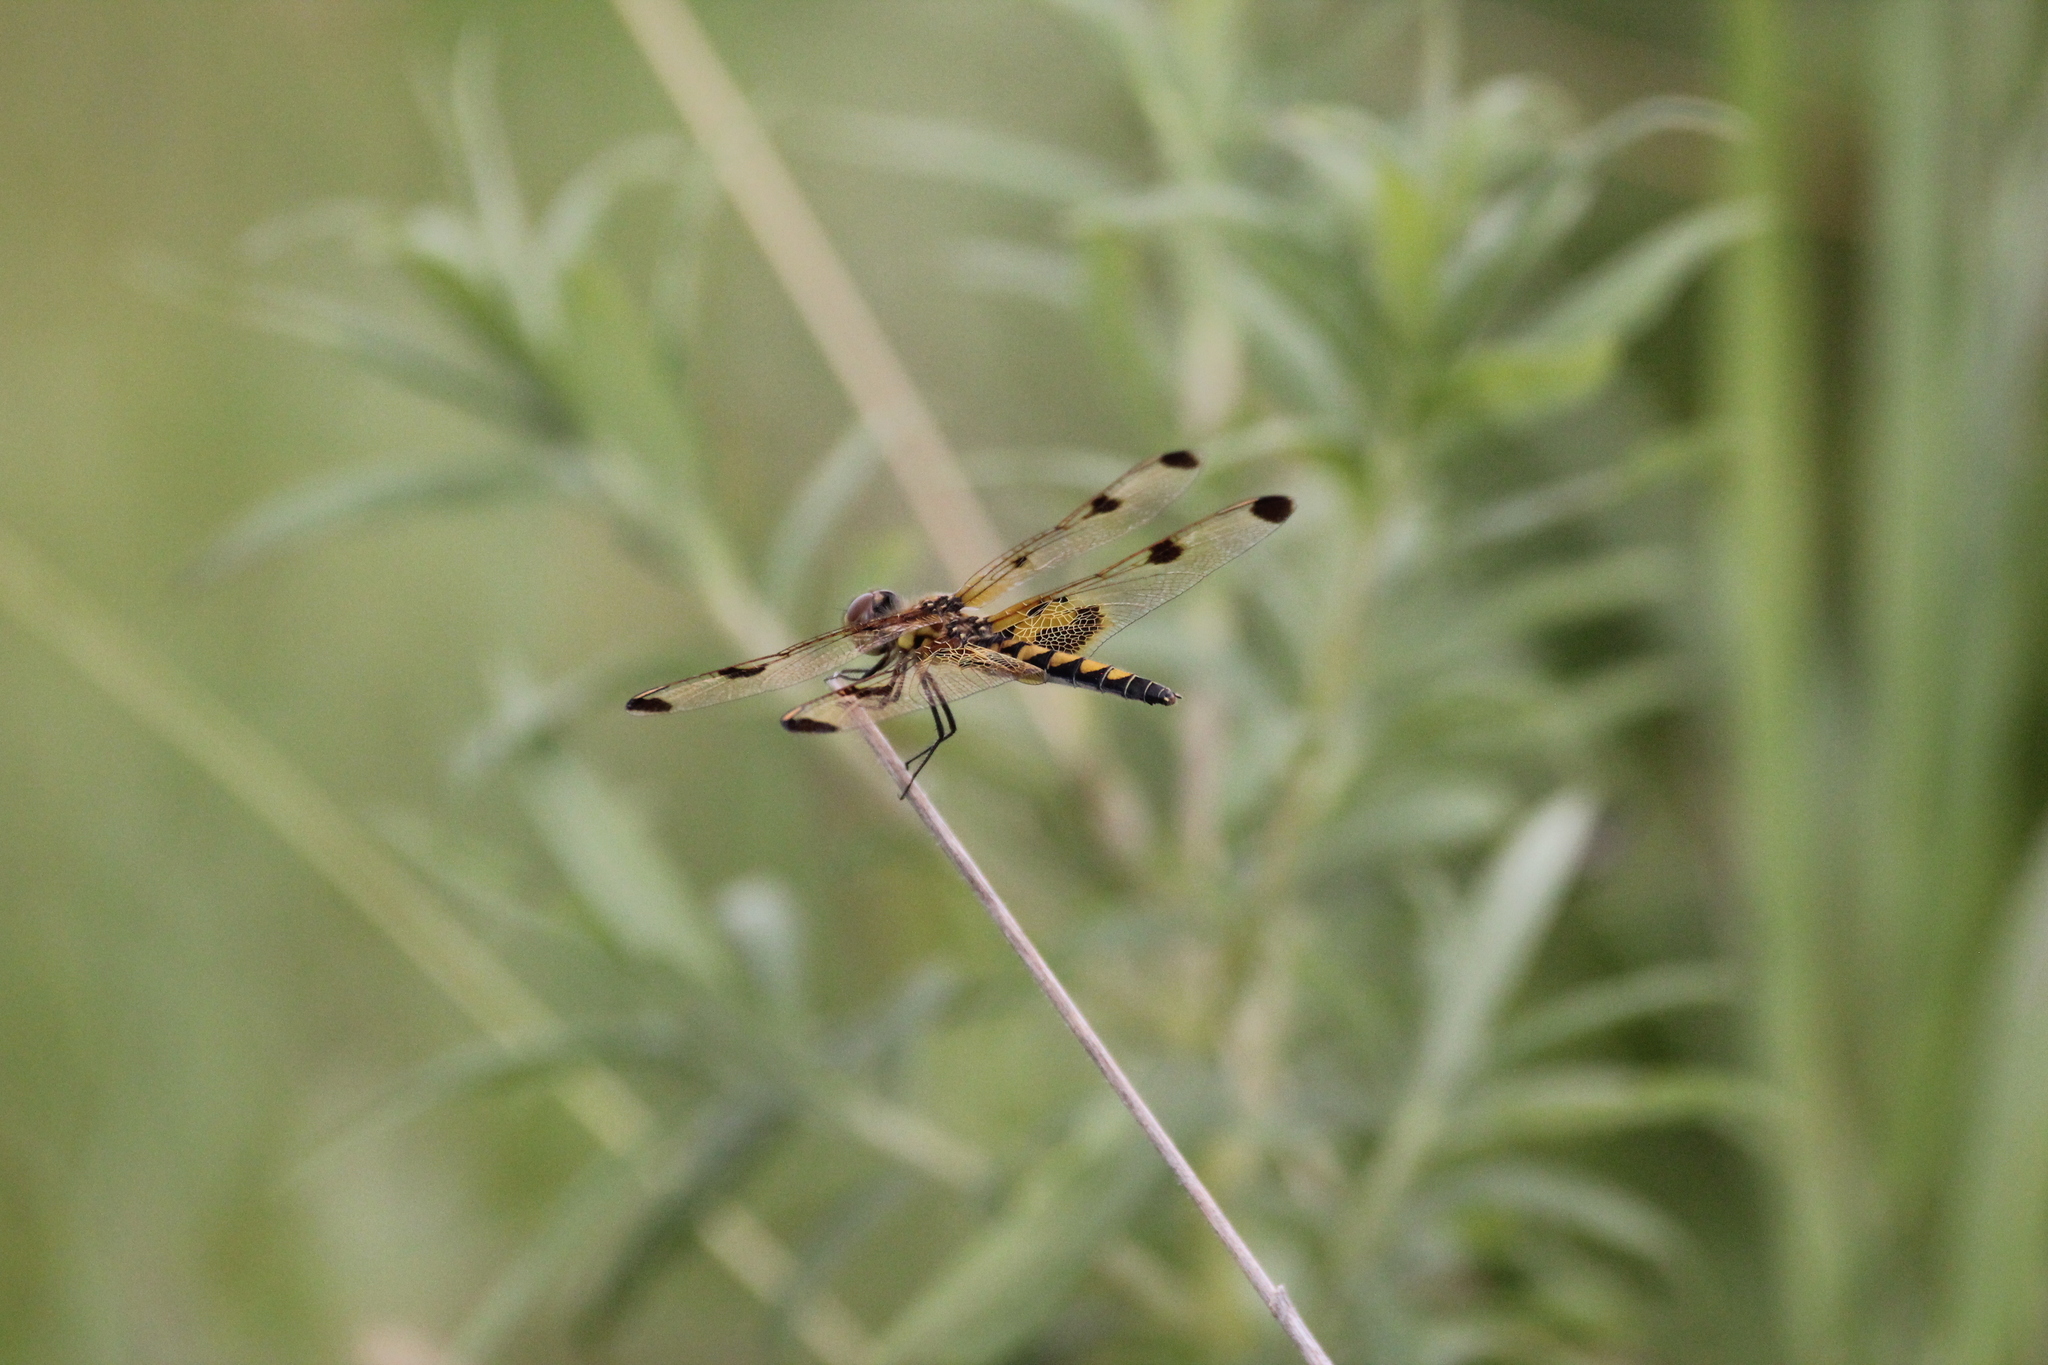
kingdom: Animalia
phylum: Arthropoda
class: Insecta
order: Odonata
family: Libellulidae
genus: Celithemis
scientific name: Celithemis elisa
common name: Calico pennant
